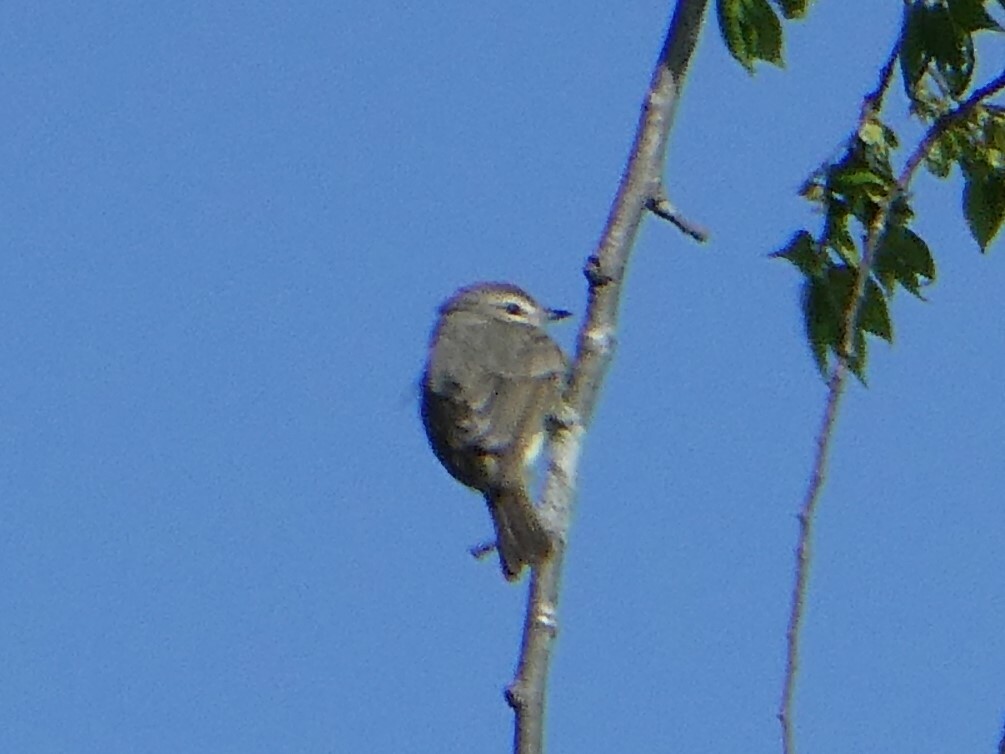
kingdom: Animalia
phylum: Chordata
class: Aves
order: Passeriformes
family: Vireonidae
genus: Vireo
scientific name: Vireo gilvus
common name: Warbling vireo
